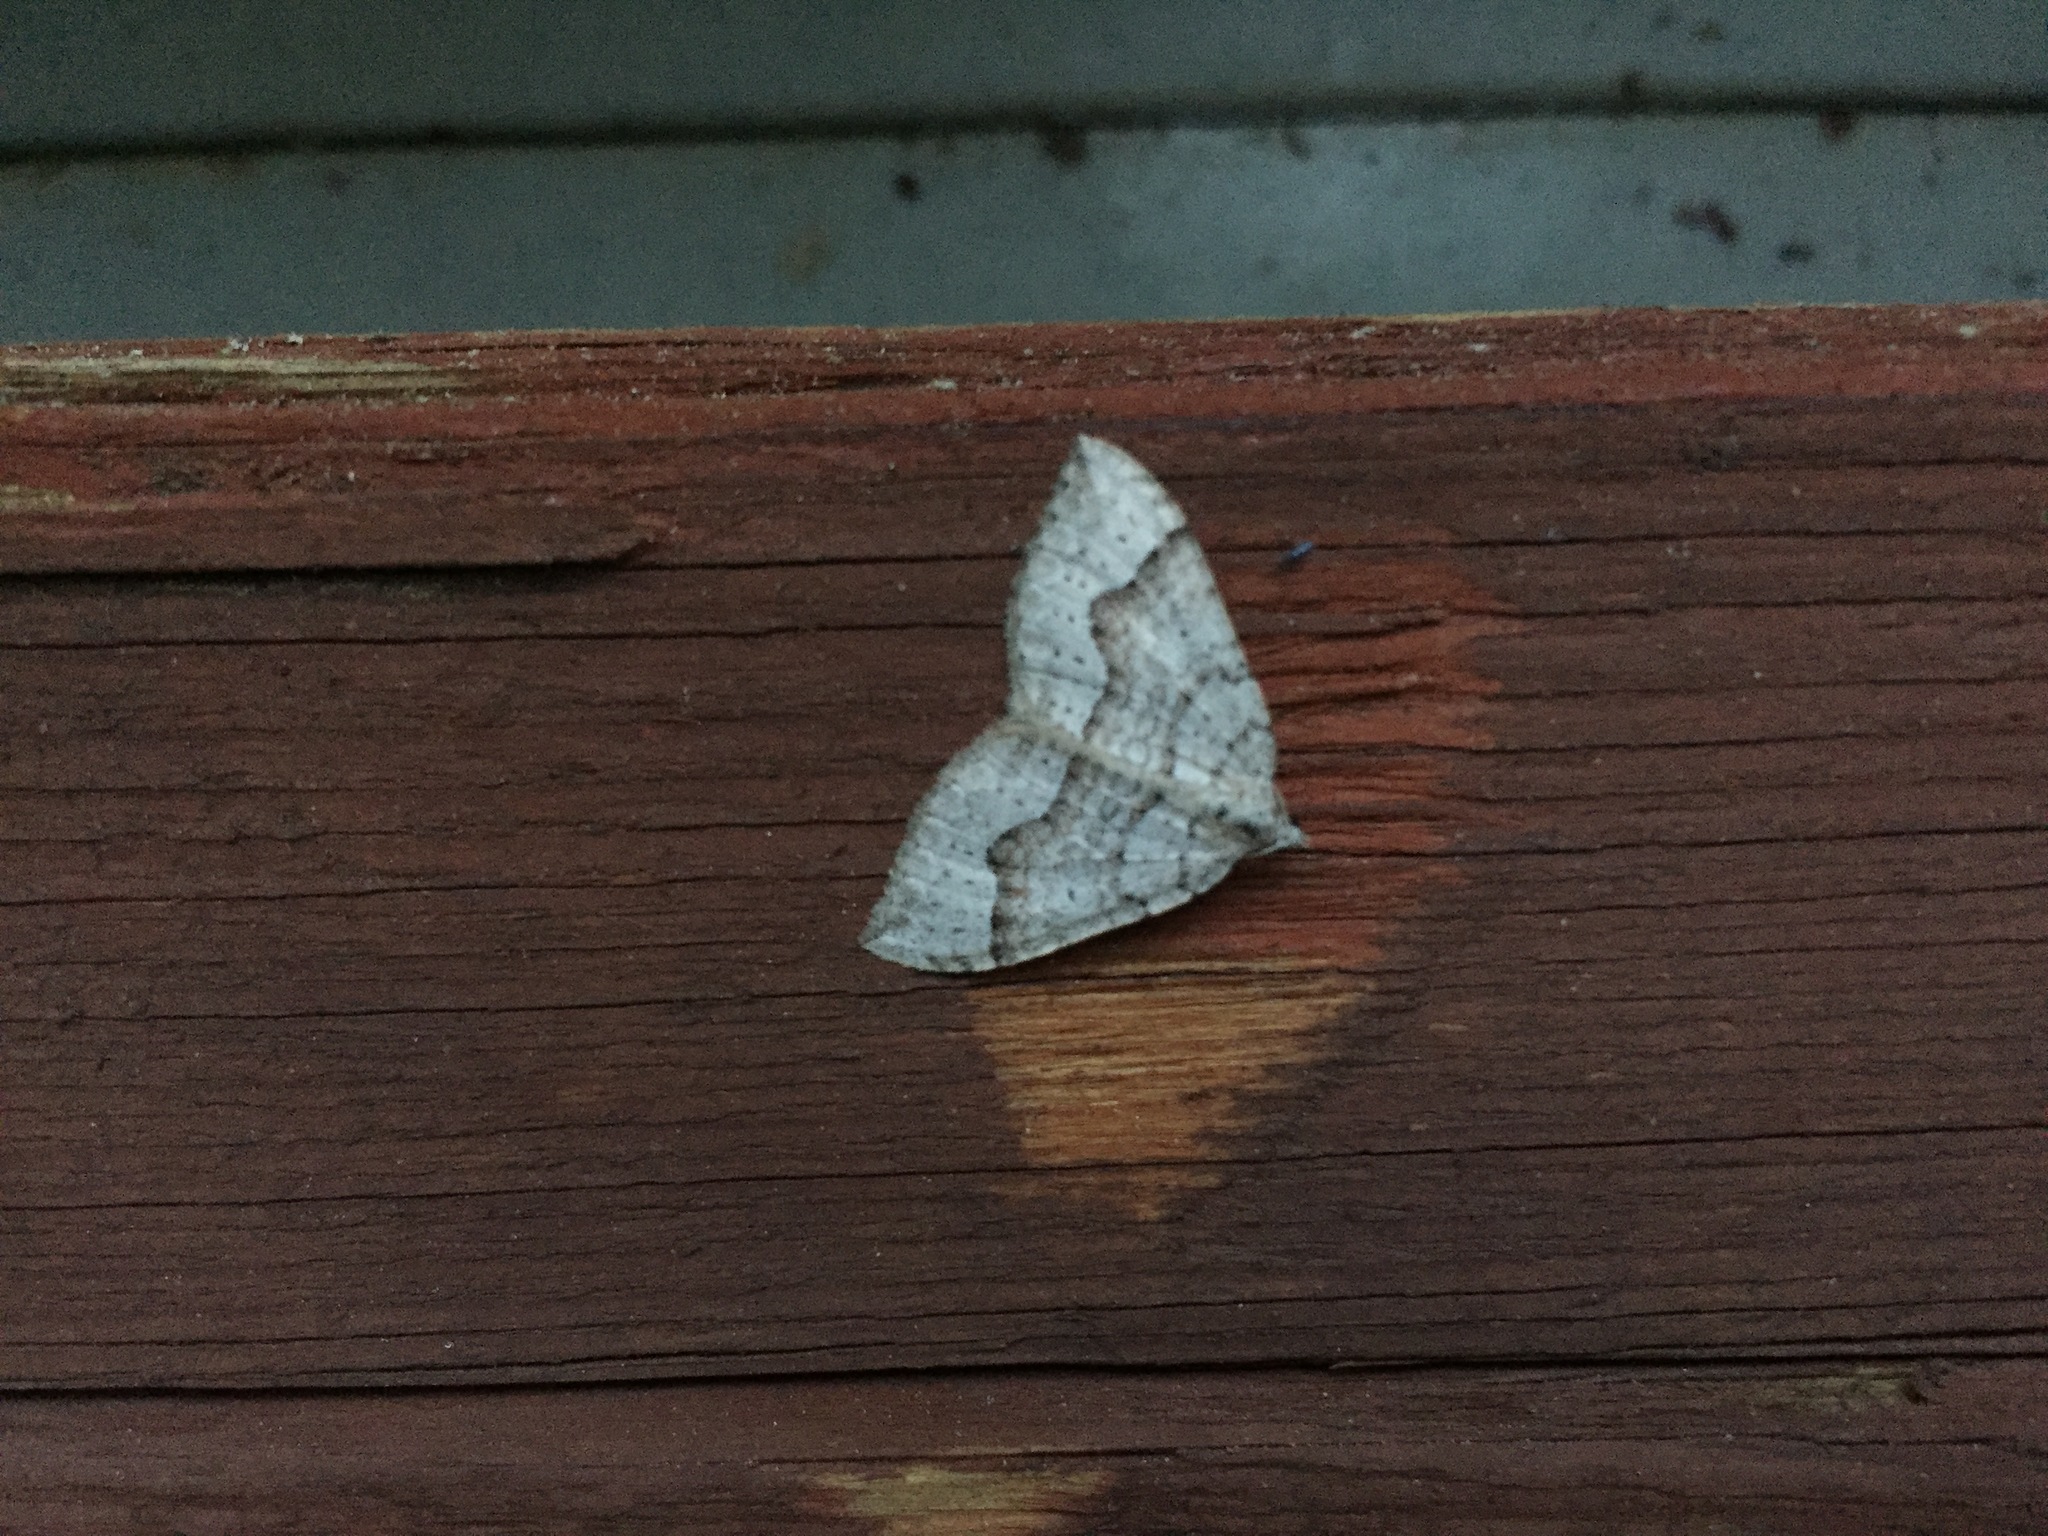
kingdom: Animalia
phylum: Arthropoda
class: Insecta
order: Lepidoptera
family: Geometridae
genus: Zenophleps
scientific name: Zenophleps alpinata
